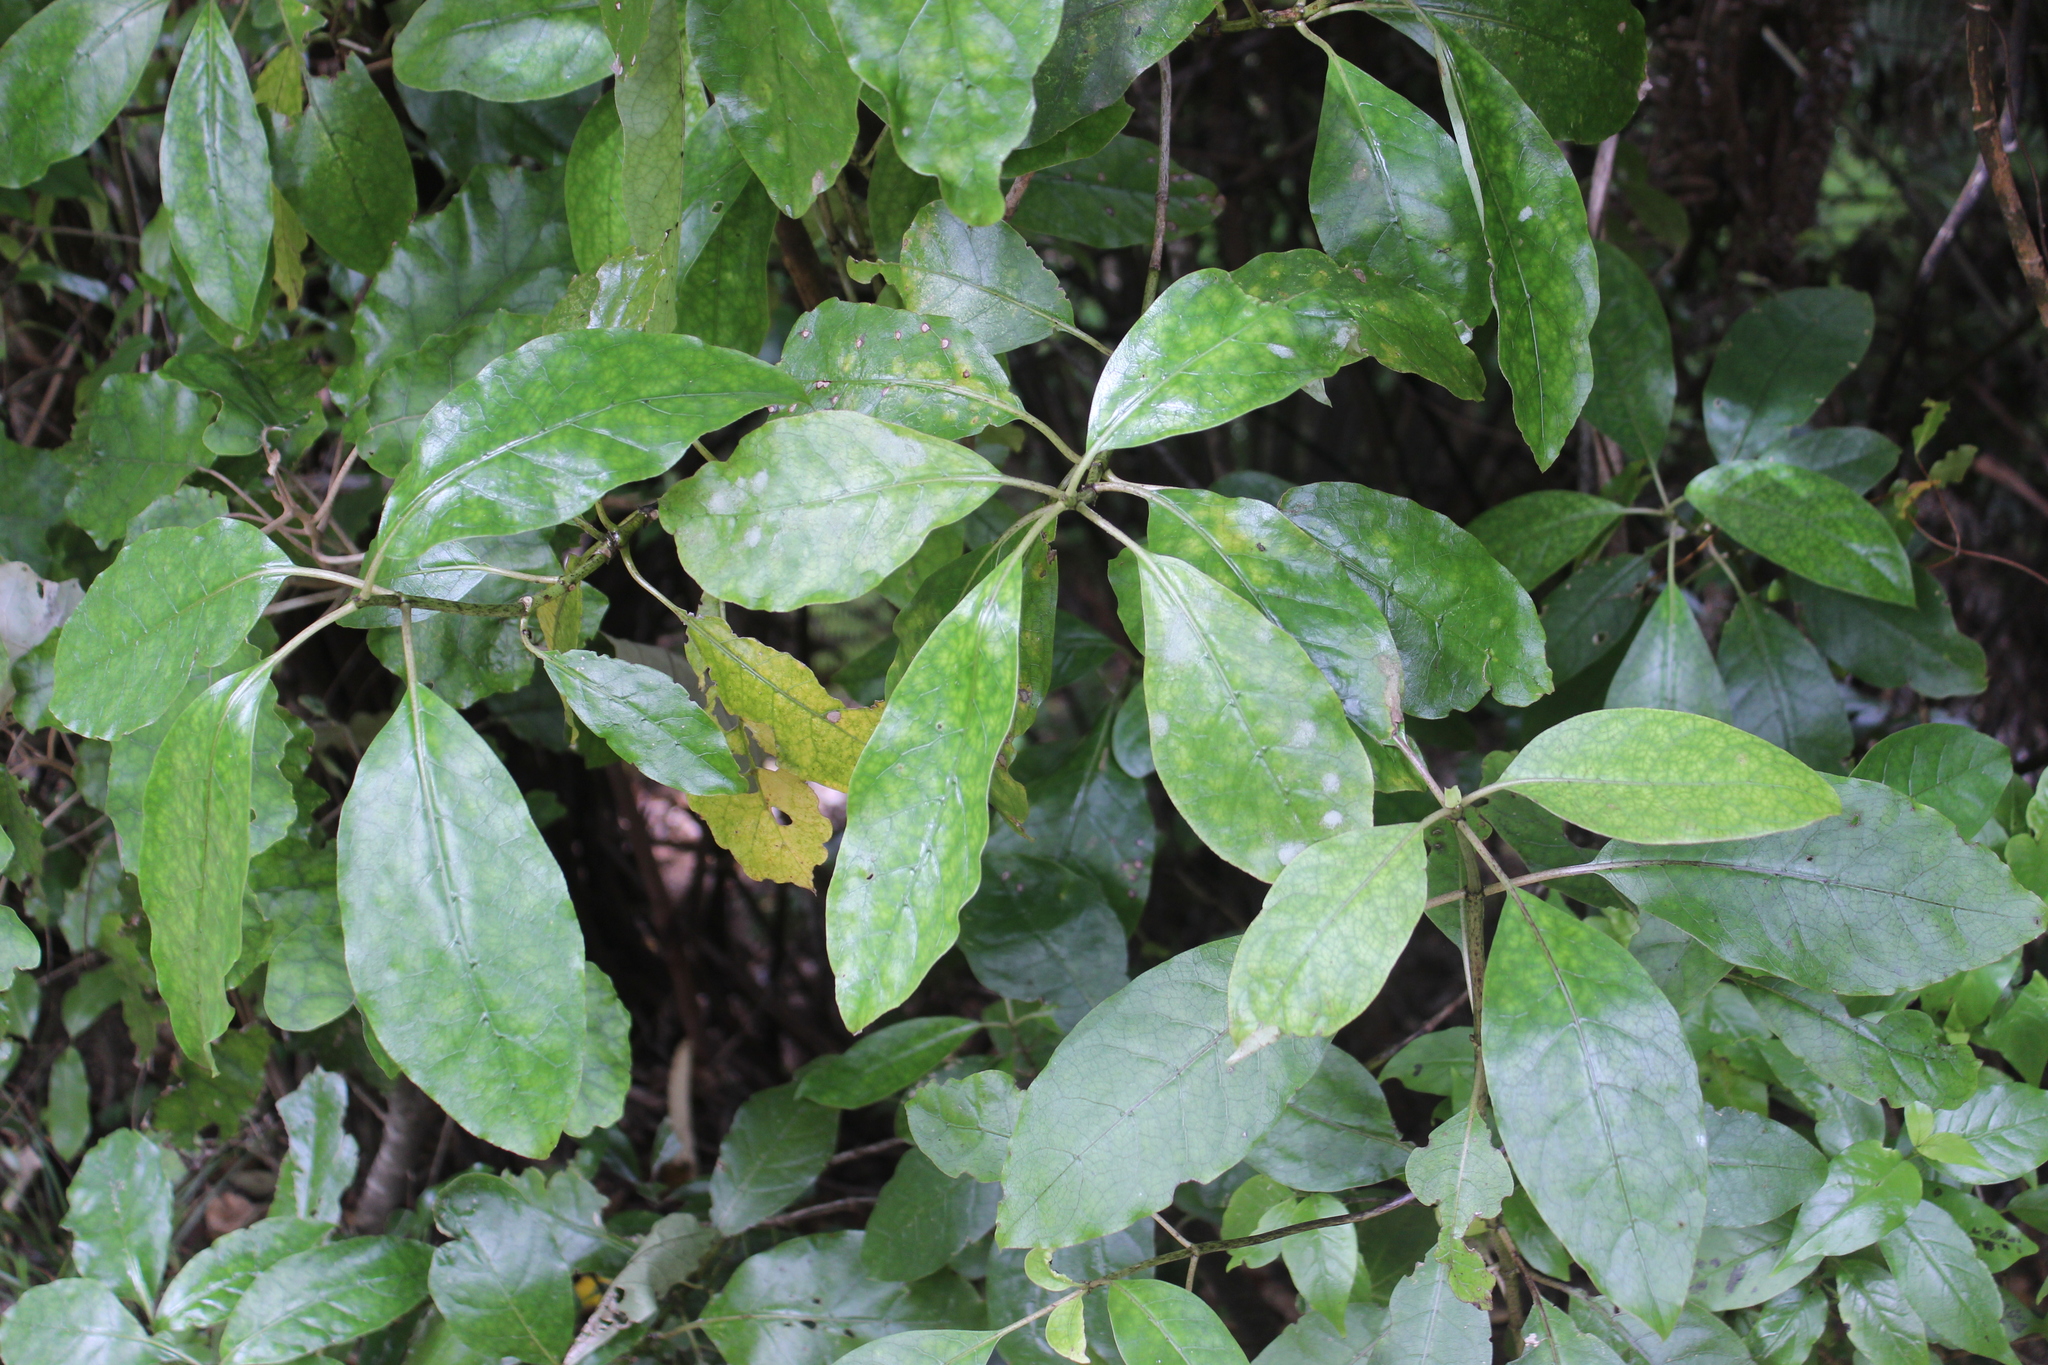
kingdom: Plantae
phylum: Tracheophyta
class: Magnoliopsida
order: Gentianales
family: Rubiaceae
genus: Coprosma
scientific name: Coprosma autumnalis
